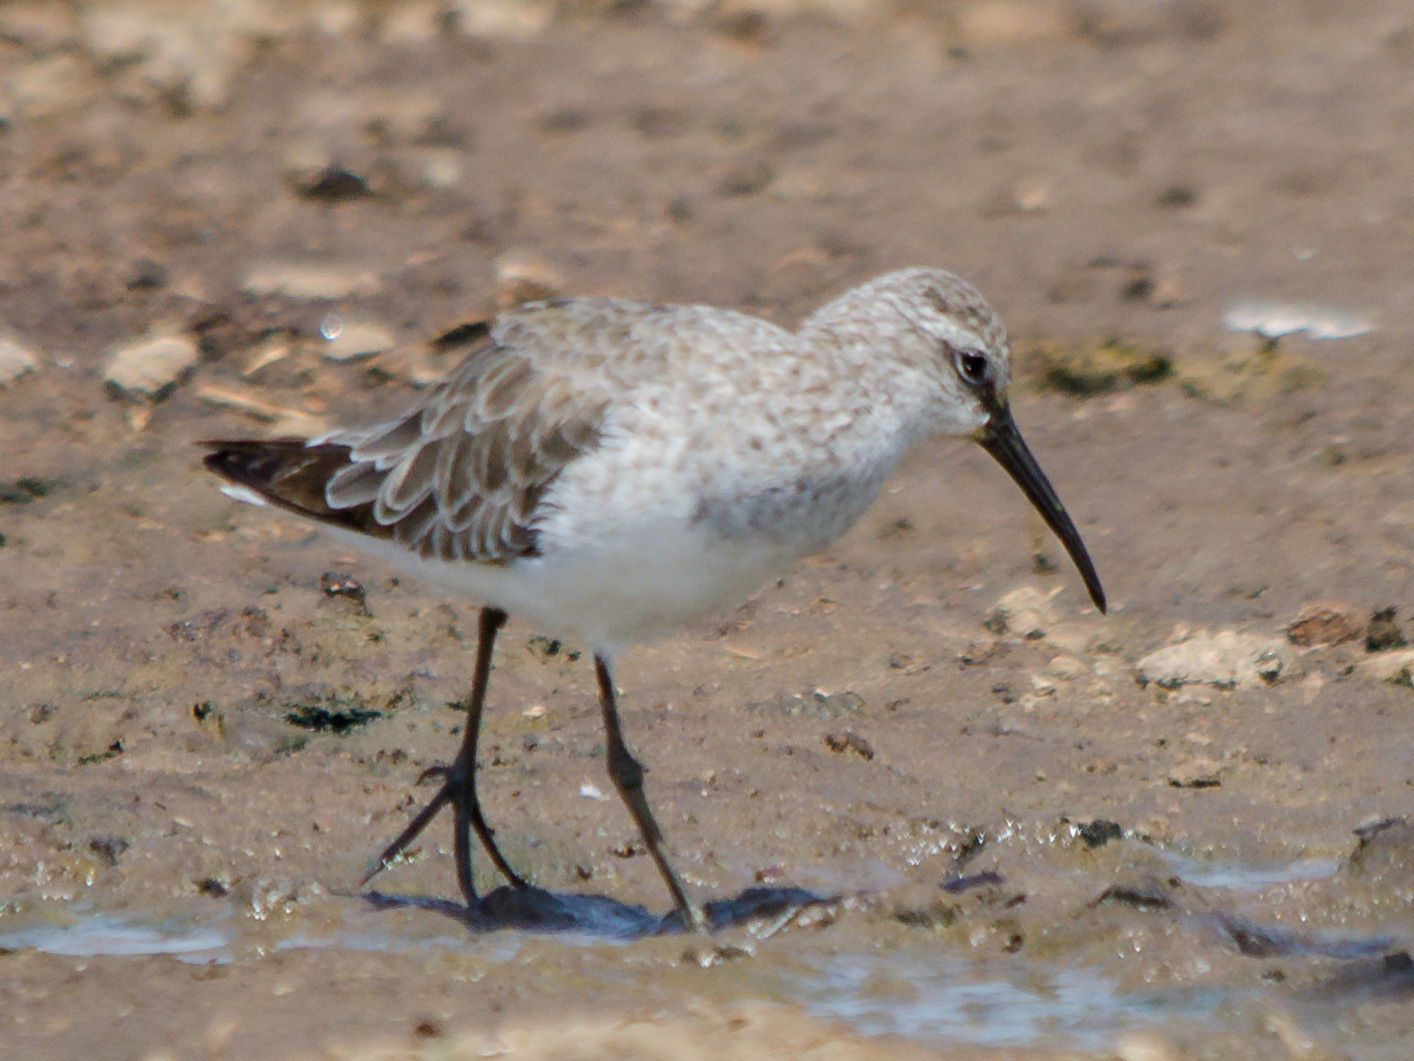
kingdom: Animalia
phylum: Chordata
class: Aves
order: Charadriiformes
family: Scolopacidae
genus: Calidris
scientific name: Calidris ferruginea
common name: Curlew sandpiper
